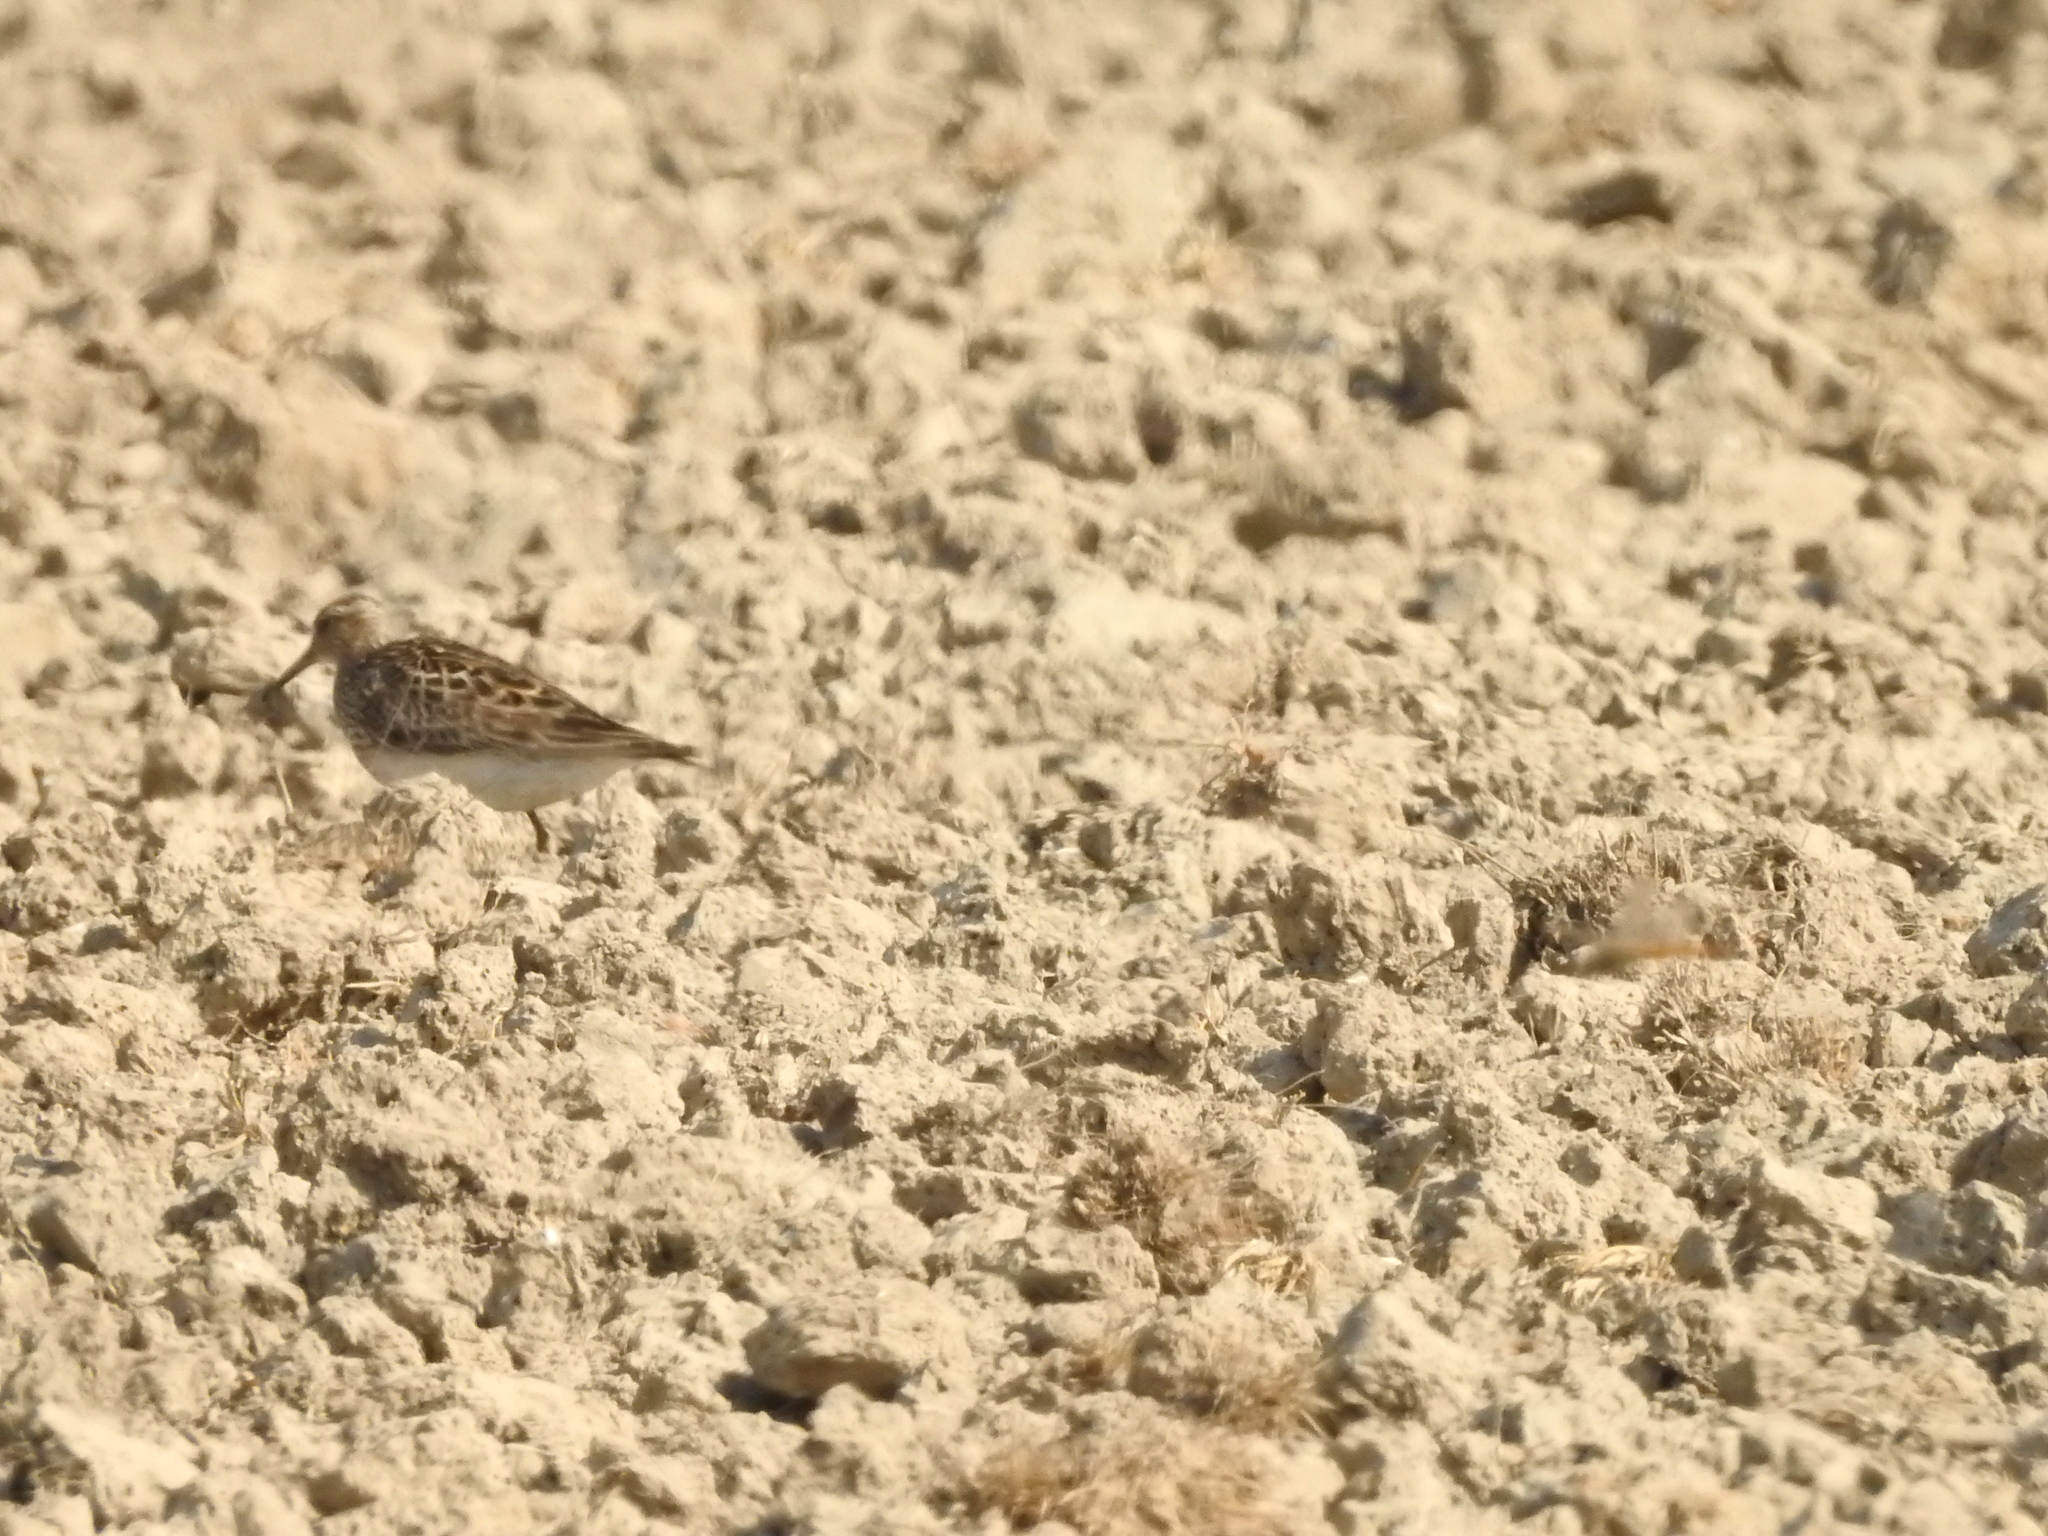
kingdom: Animalia
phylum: Chordata
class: Aves
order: Charadriiformes
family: Scolopacidae
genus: Calidris
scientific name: Calidris melanotos
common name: Pectoral sandpiper
